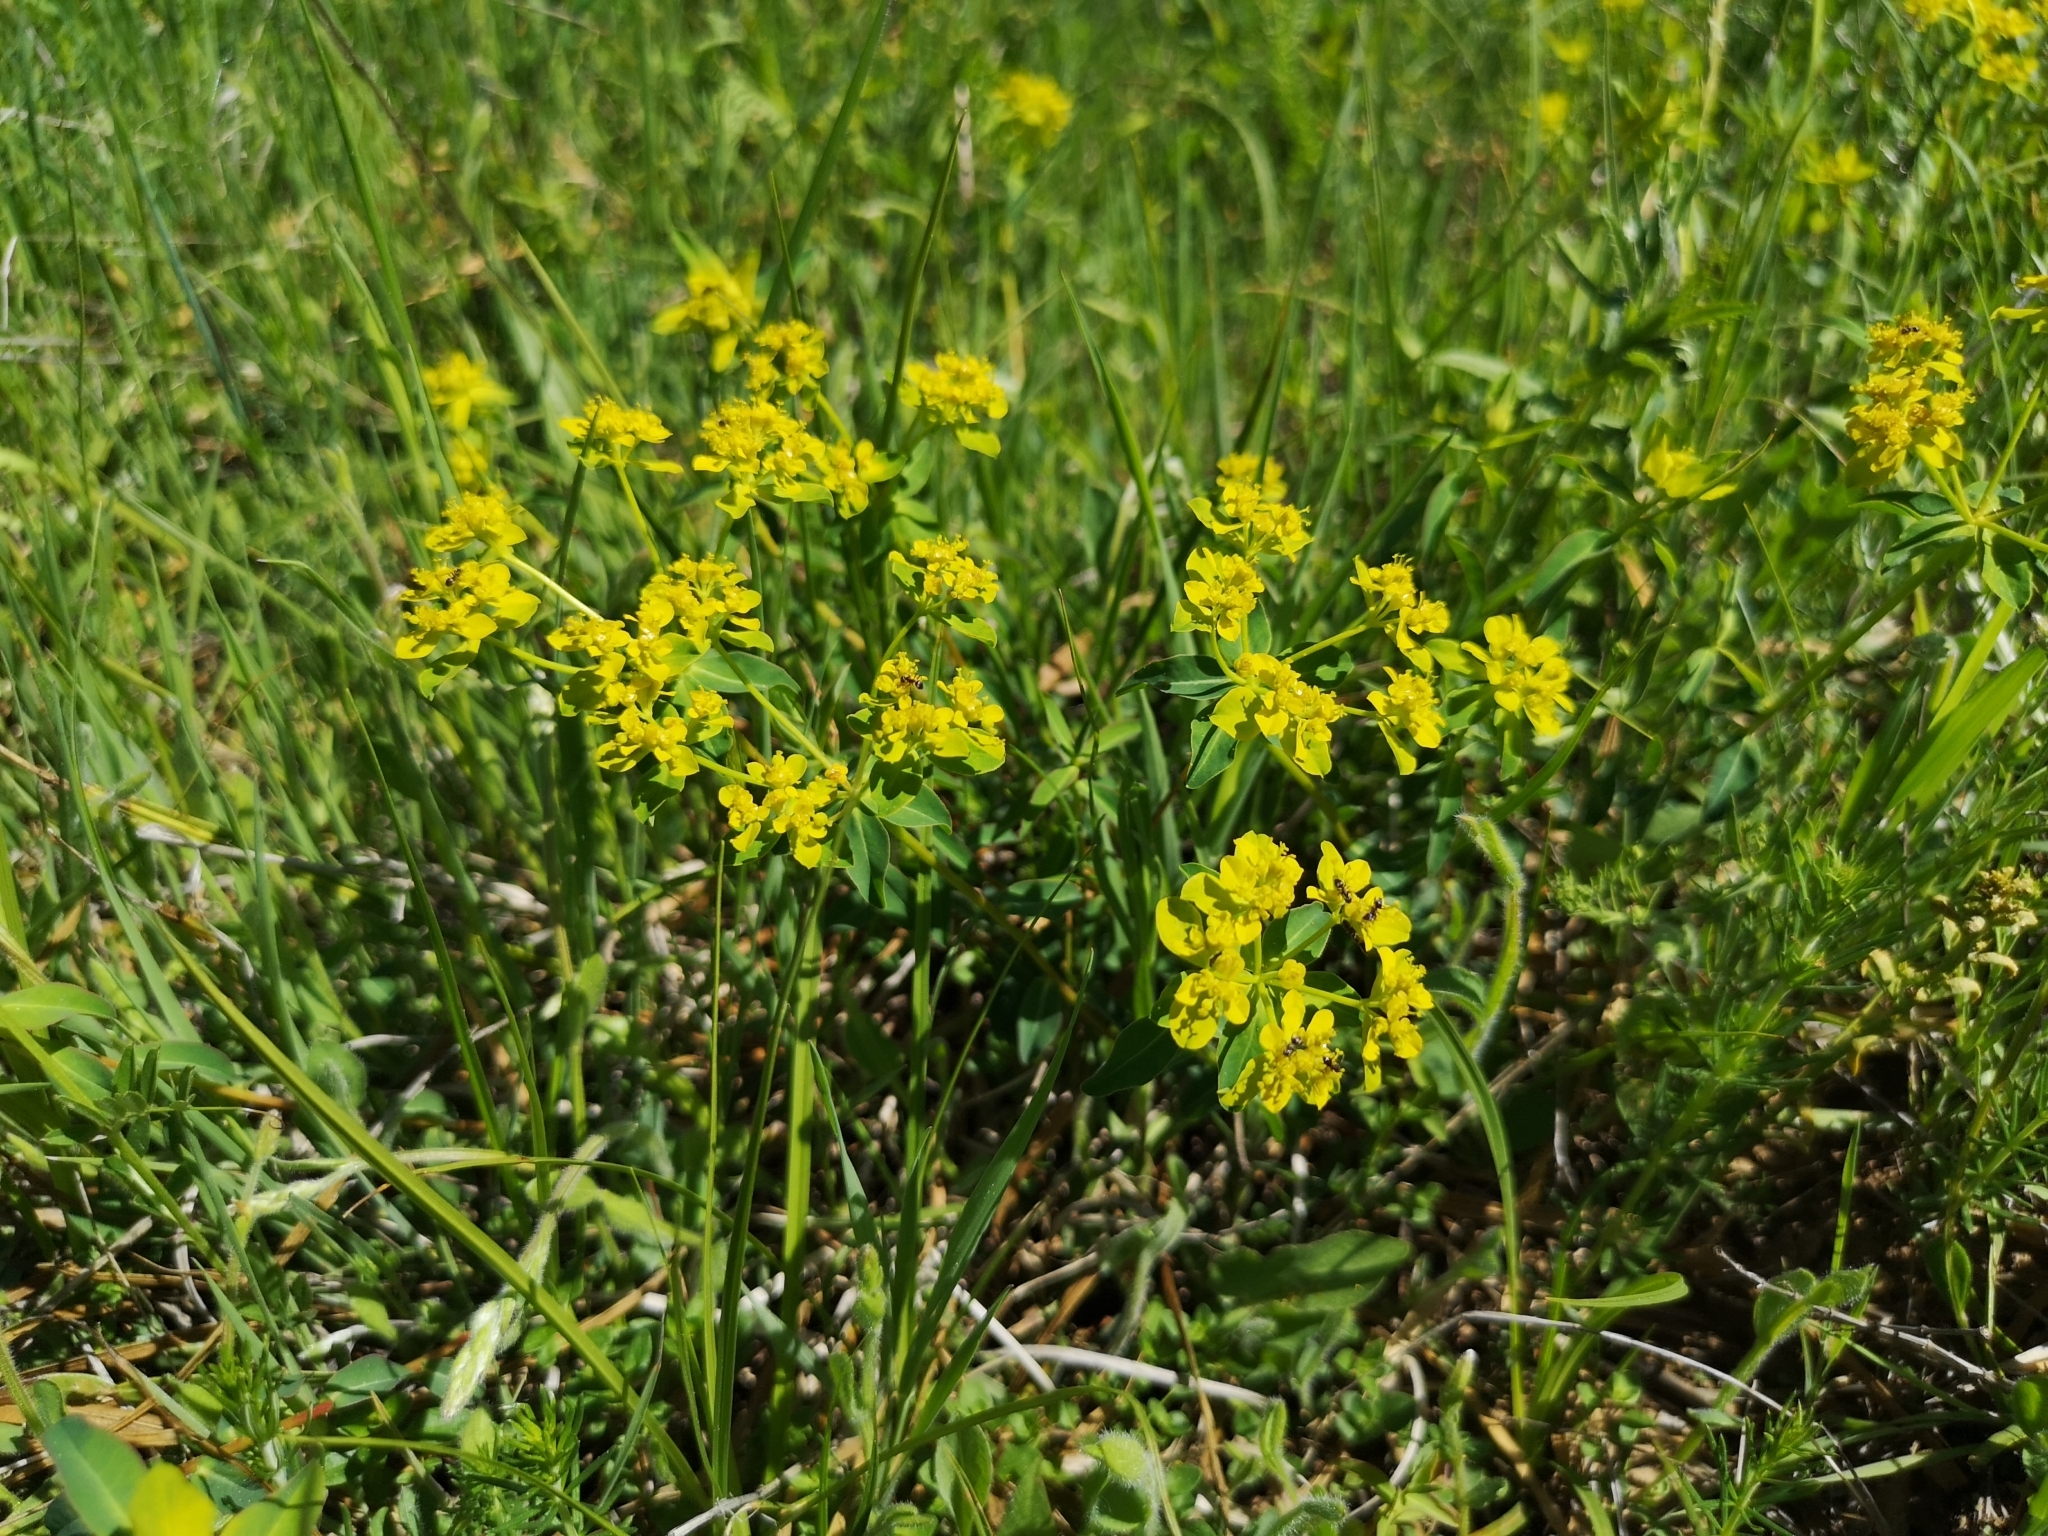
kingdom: Plantae
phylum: Tracheophyta
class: Magnoliopsida
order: Malpighiales
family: Euphorbiaceae
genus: Euphorbia
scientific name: Euphorbia verrucosa
